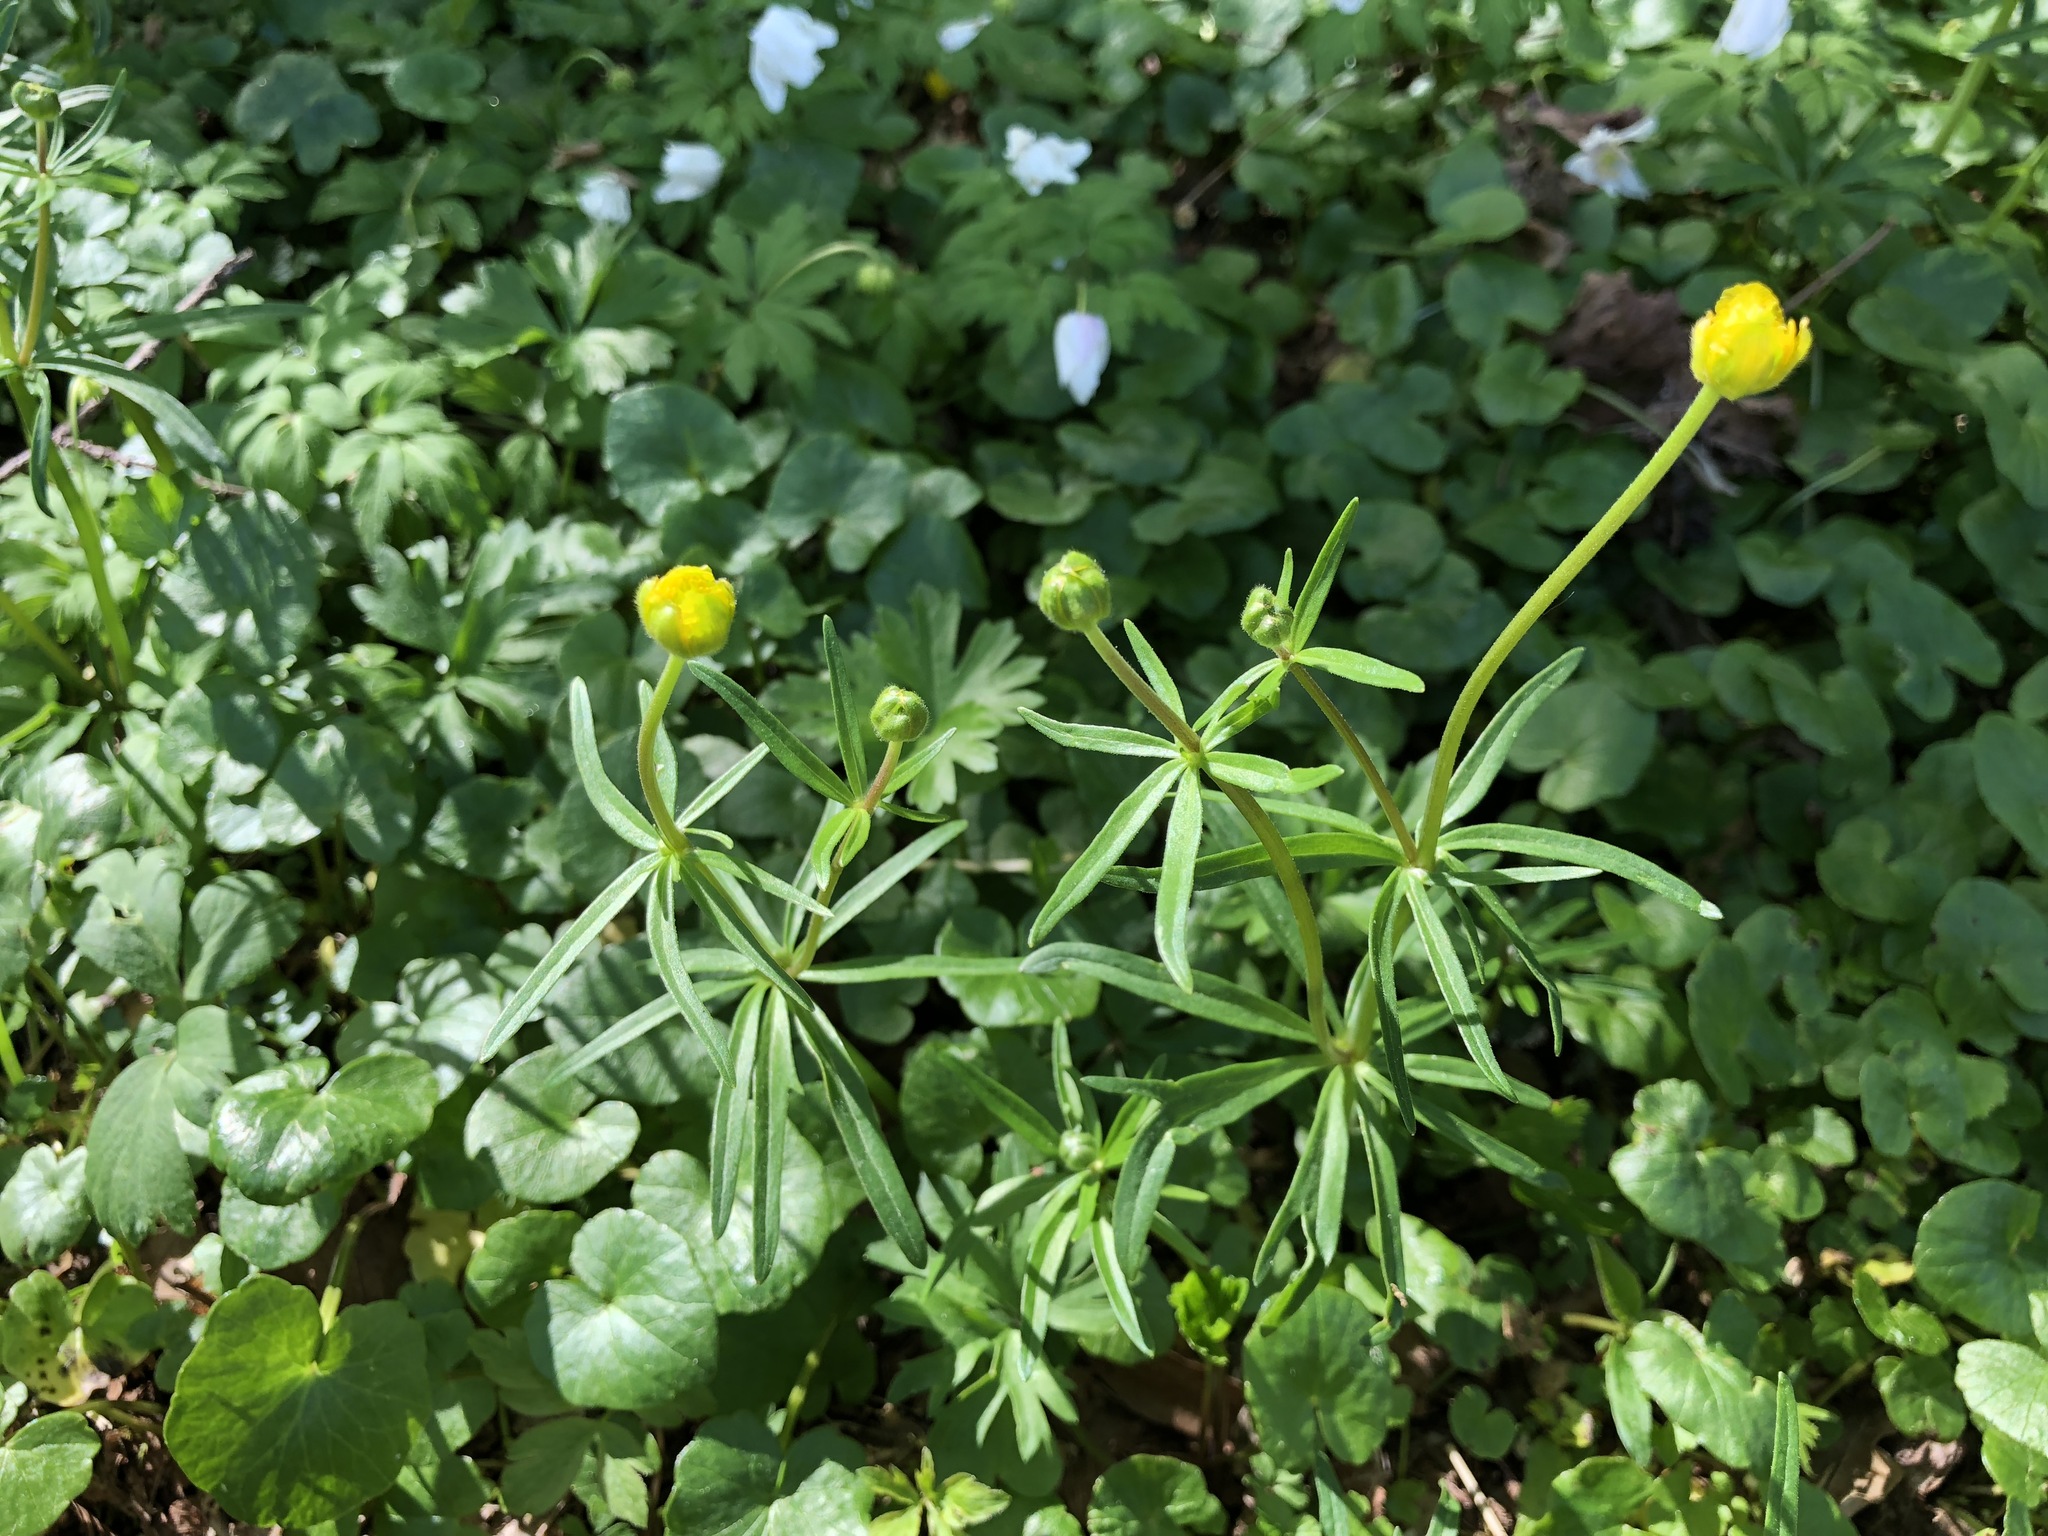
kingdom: Plantae
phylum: Tracheophyta
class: Magnoliopsida
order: Ranunculales
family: Ranunculaceae
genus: Ranunculus
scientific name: Ranunculus auricomus
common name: Goldilocks buttercup
